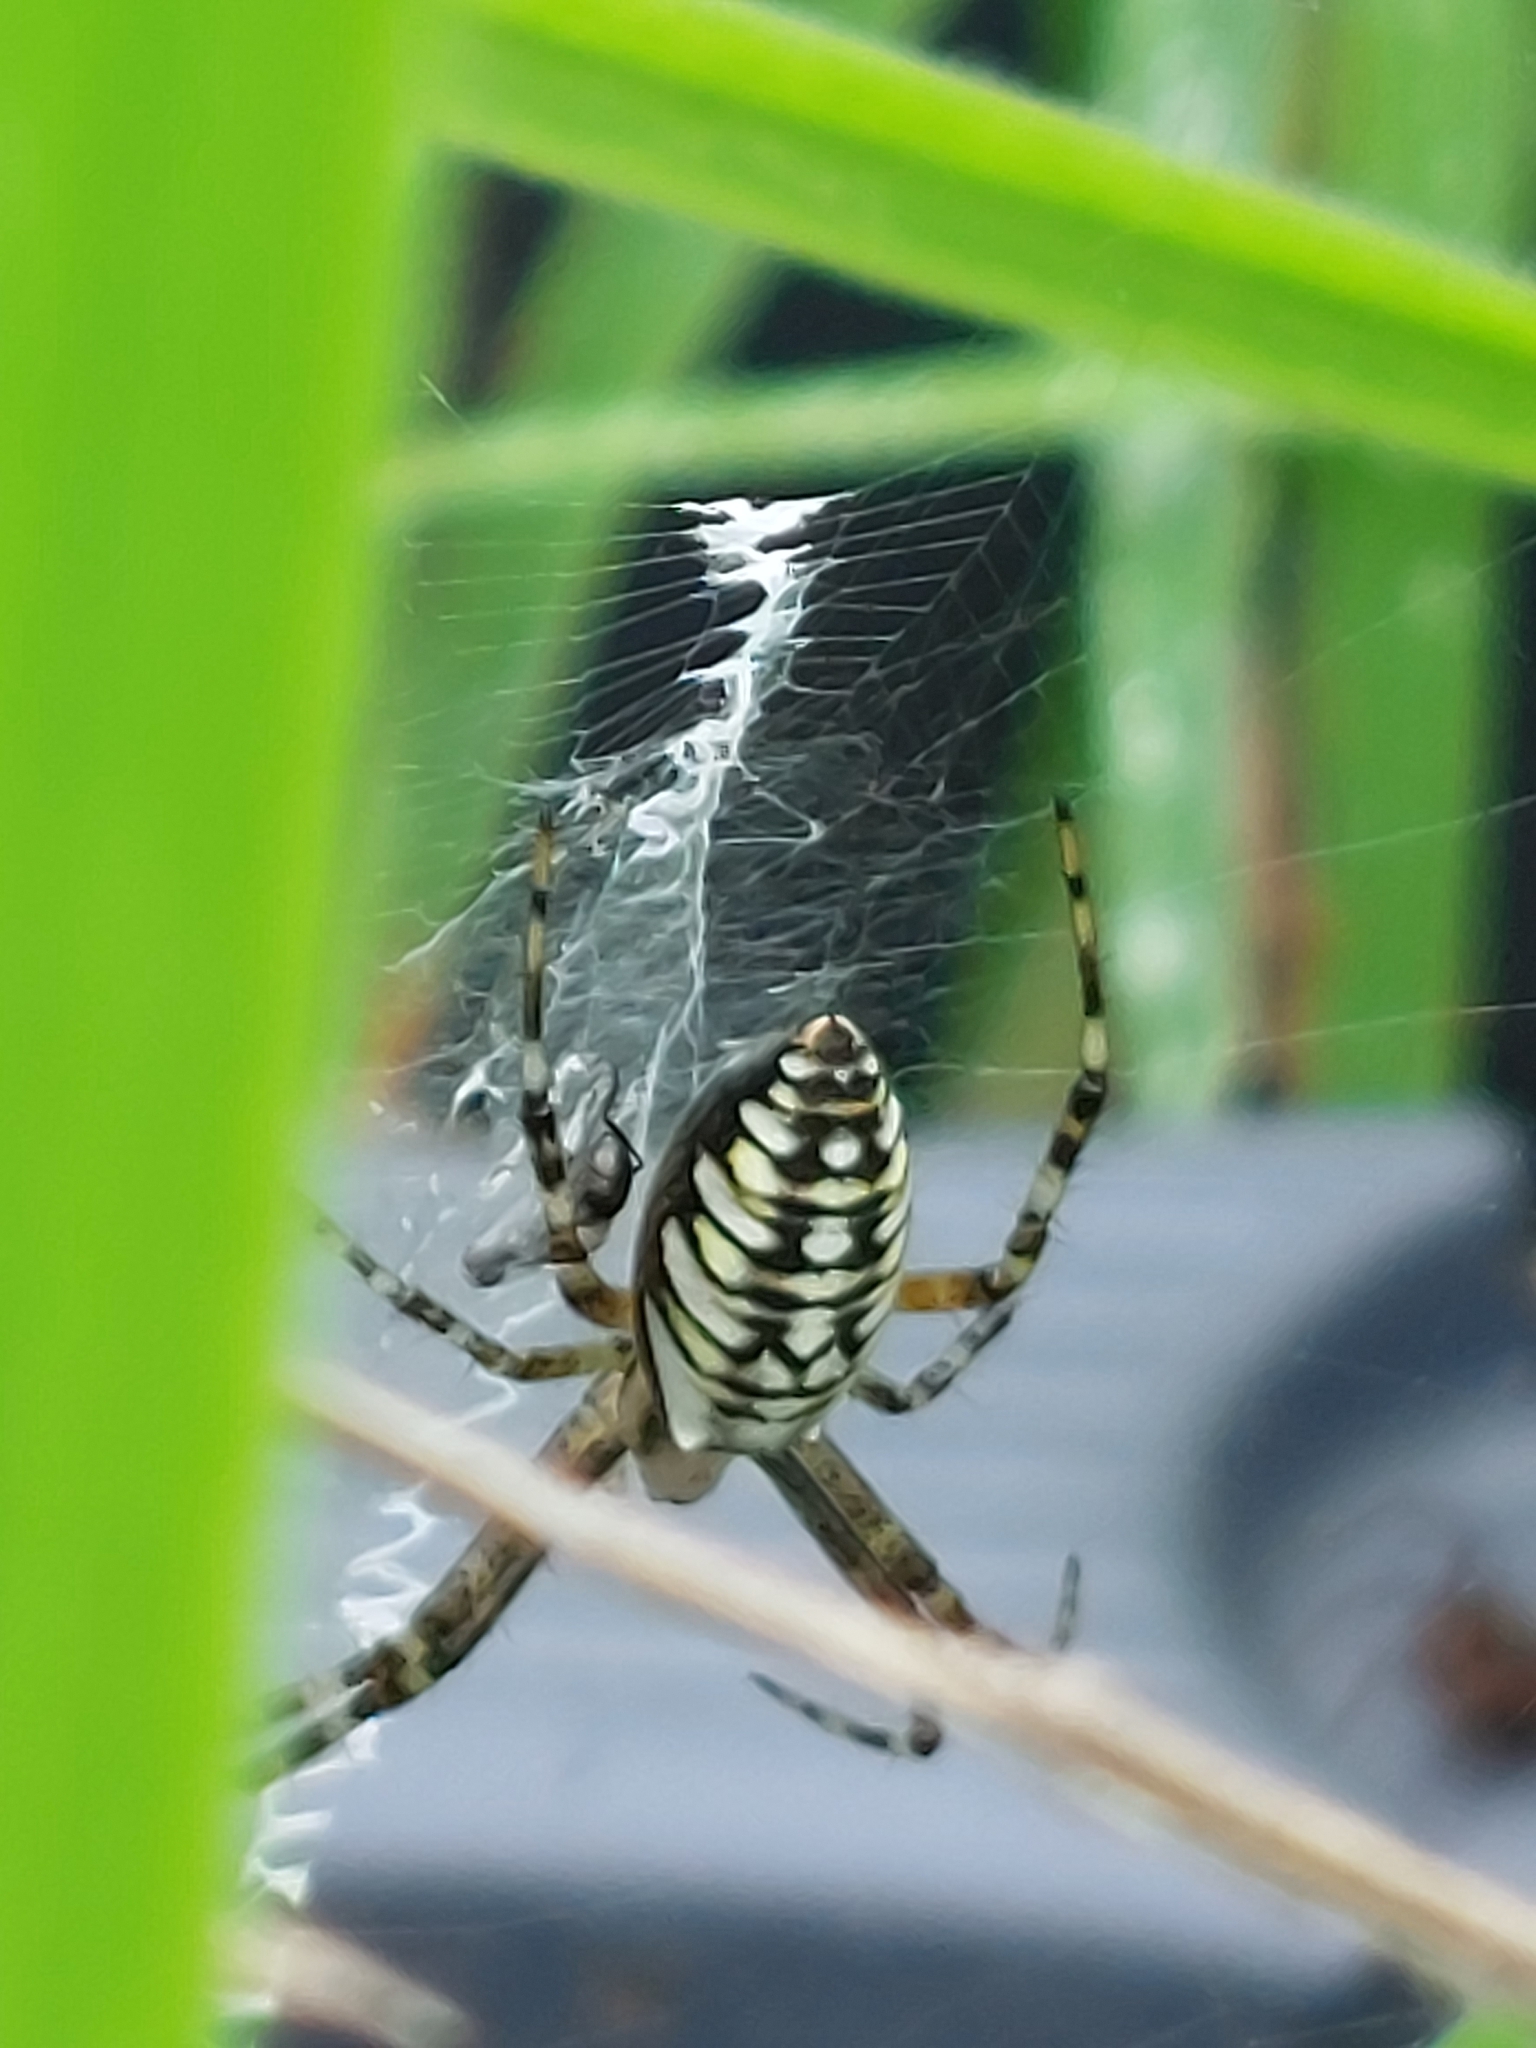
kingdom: Animalia
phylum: Arthropoda
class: Arachnida
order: Araneae
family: Araneidae
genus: Argiope
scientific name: Argiope bruennichi
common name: Wasp spider
